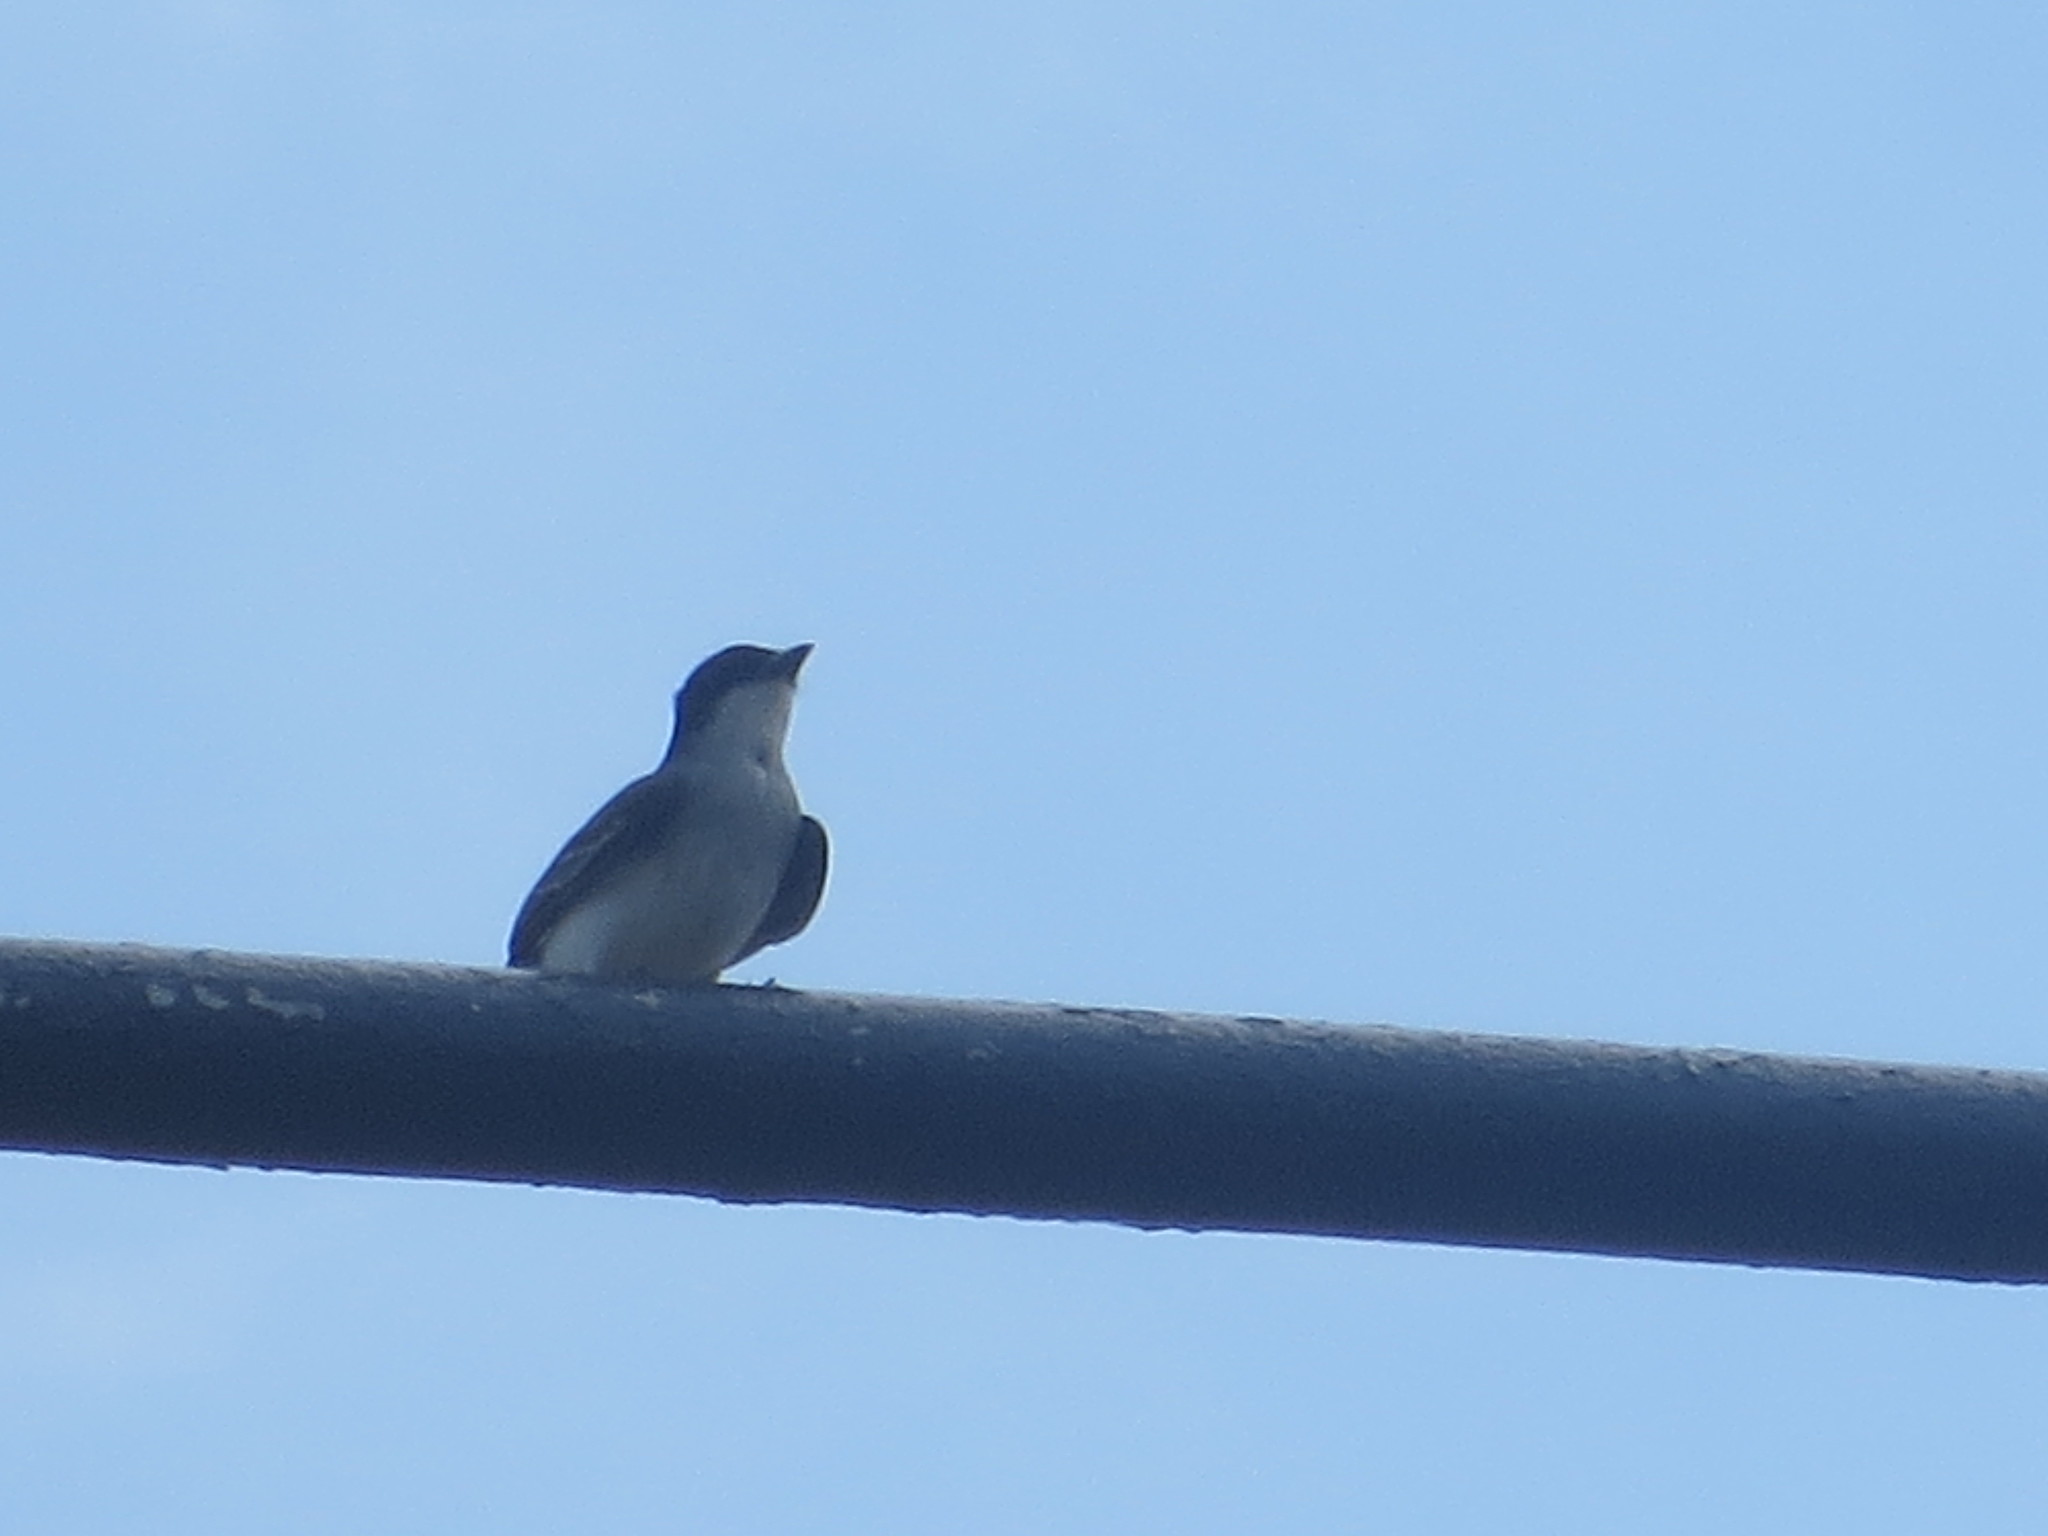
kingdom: Animalia
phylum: Chordata
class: Aves
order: Passeriformes
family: Tyrannidae
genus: Tyrannus
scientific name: Tyrannus tyrannus
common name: Eastern kingbird
